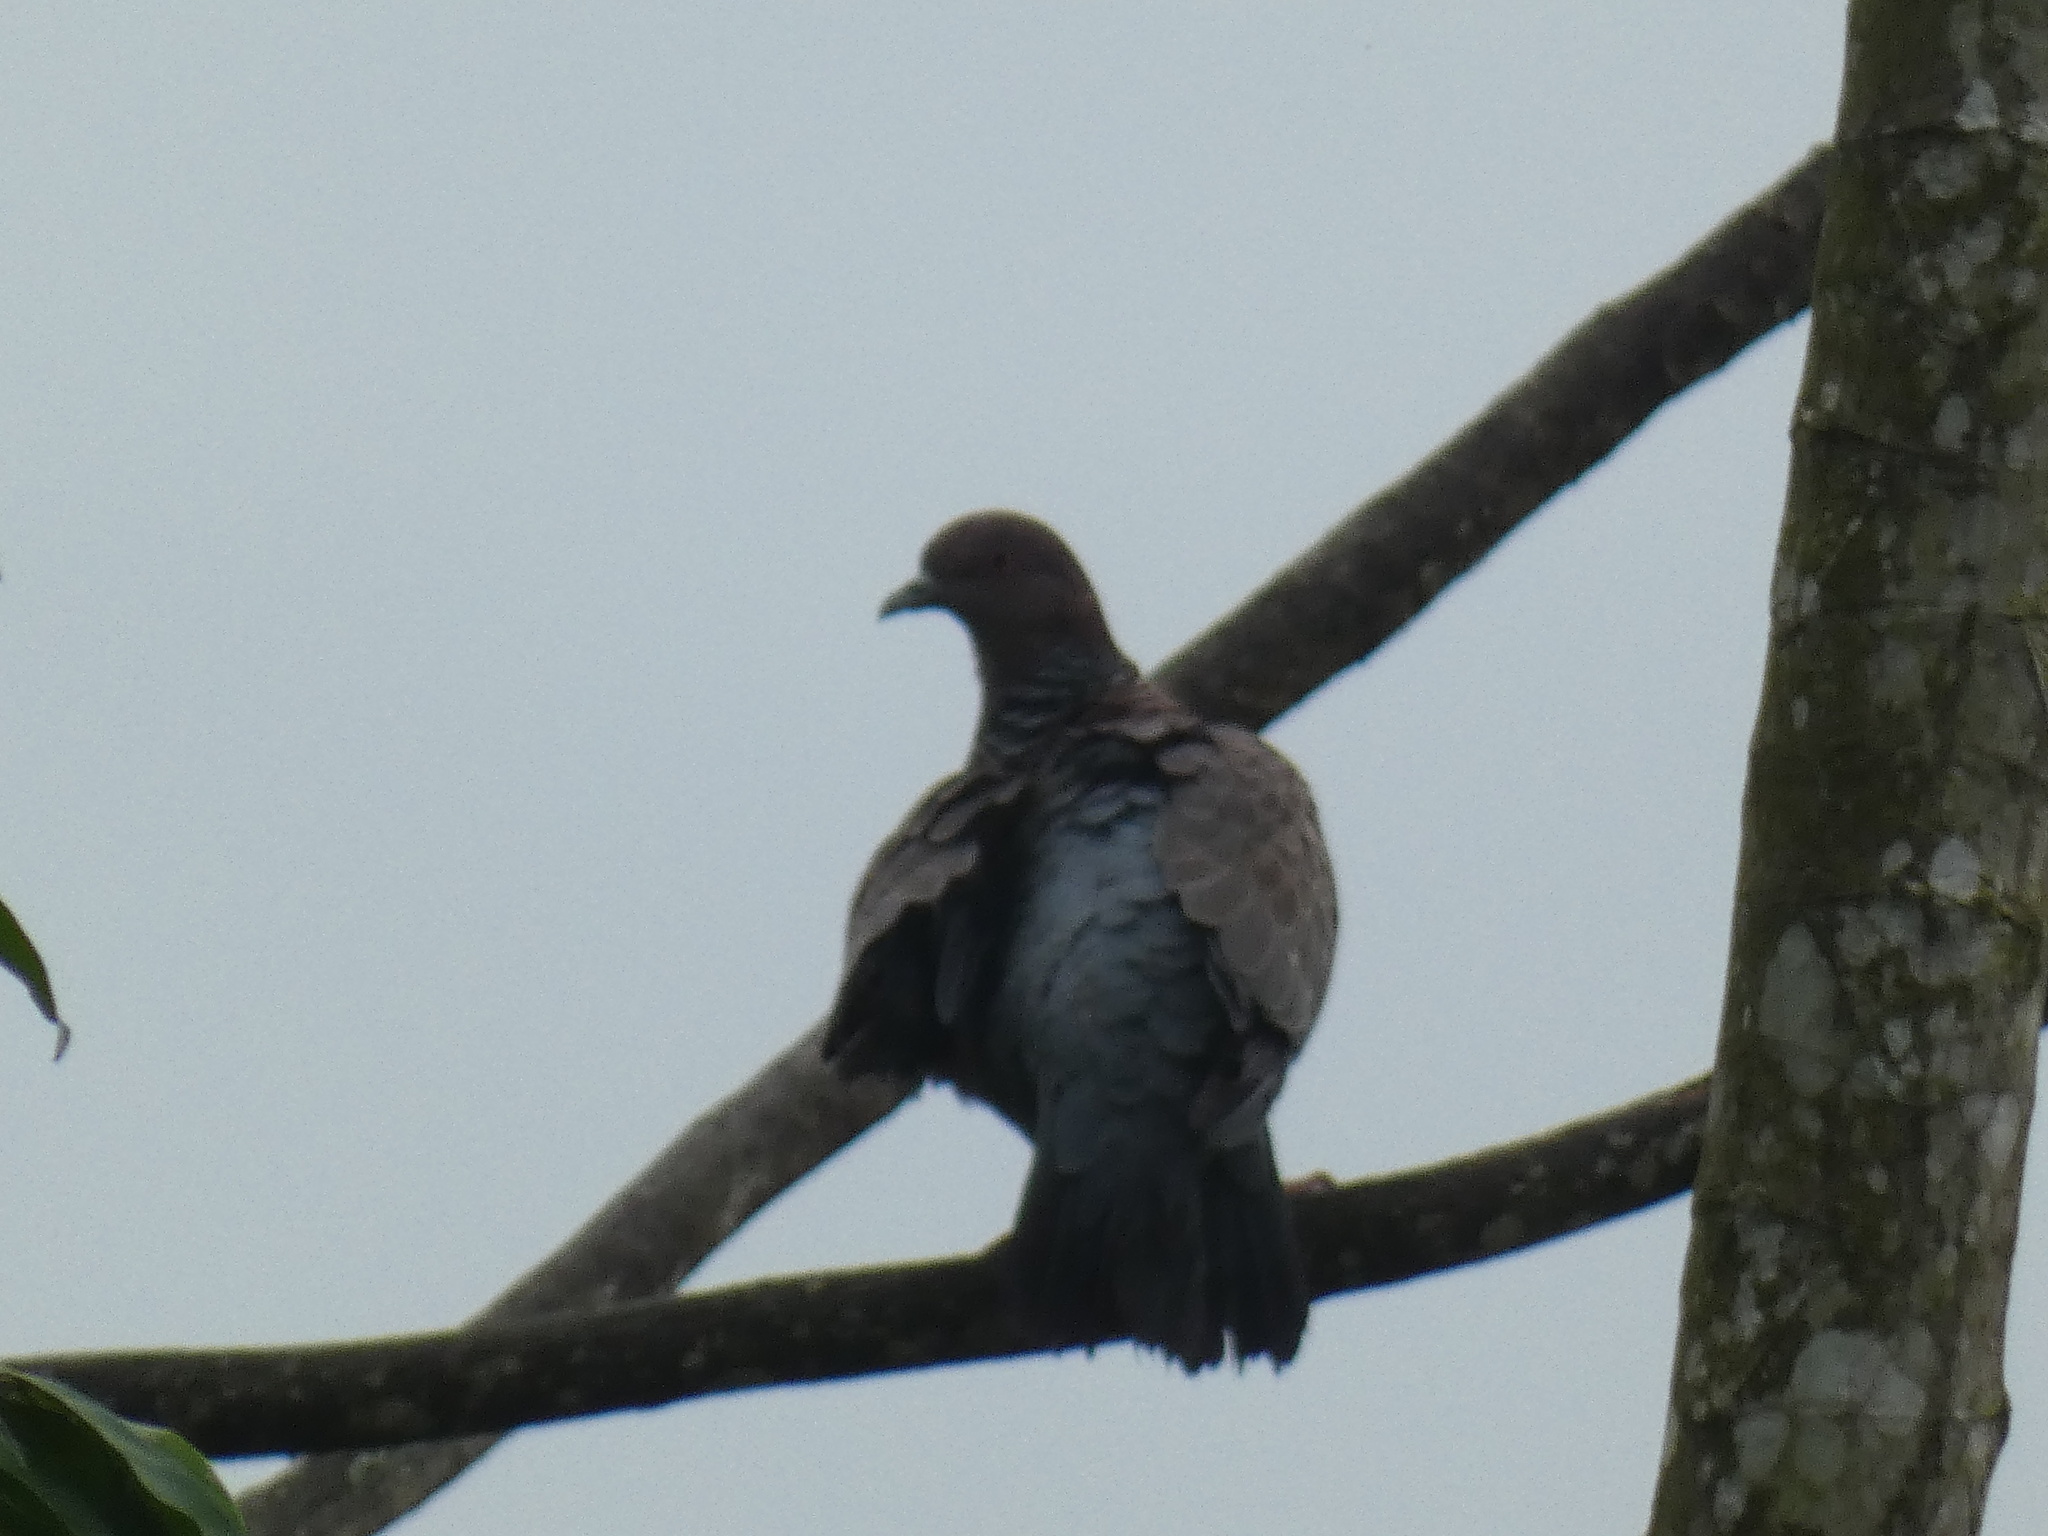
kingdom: Animalia
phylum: Chordata
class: Aves
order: Columbiformes
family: Columbidae
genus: Patagioenas
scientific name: Patagioenas picazuro
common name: Picazuro pigeon
